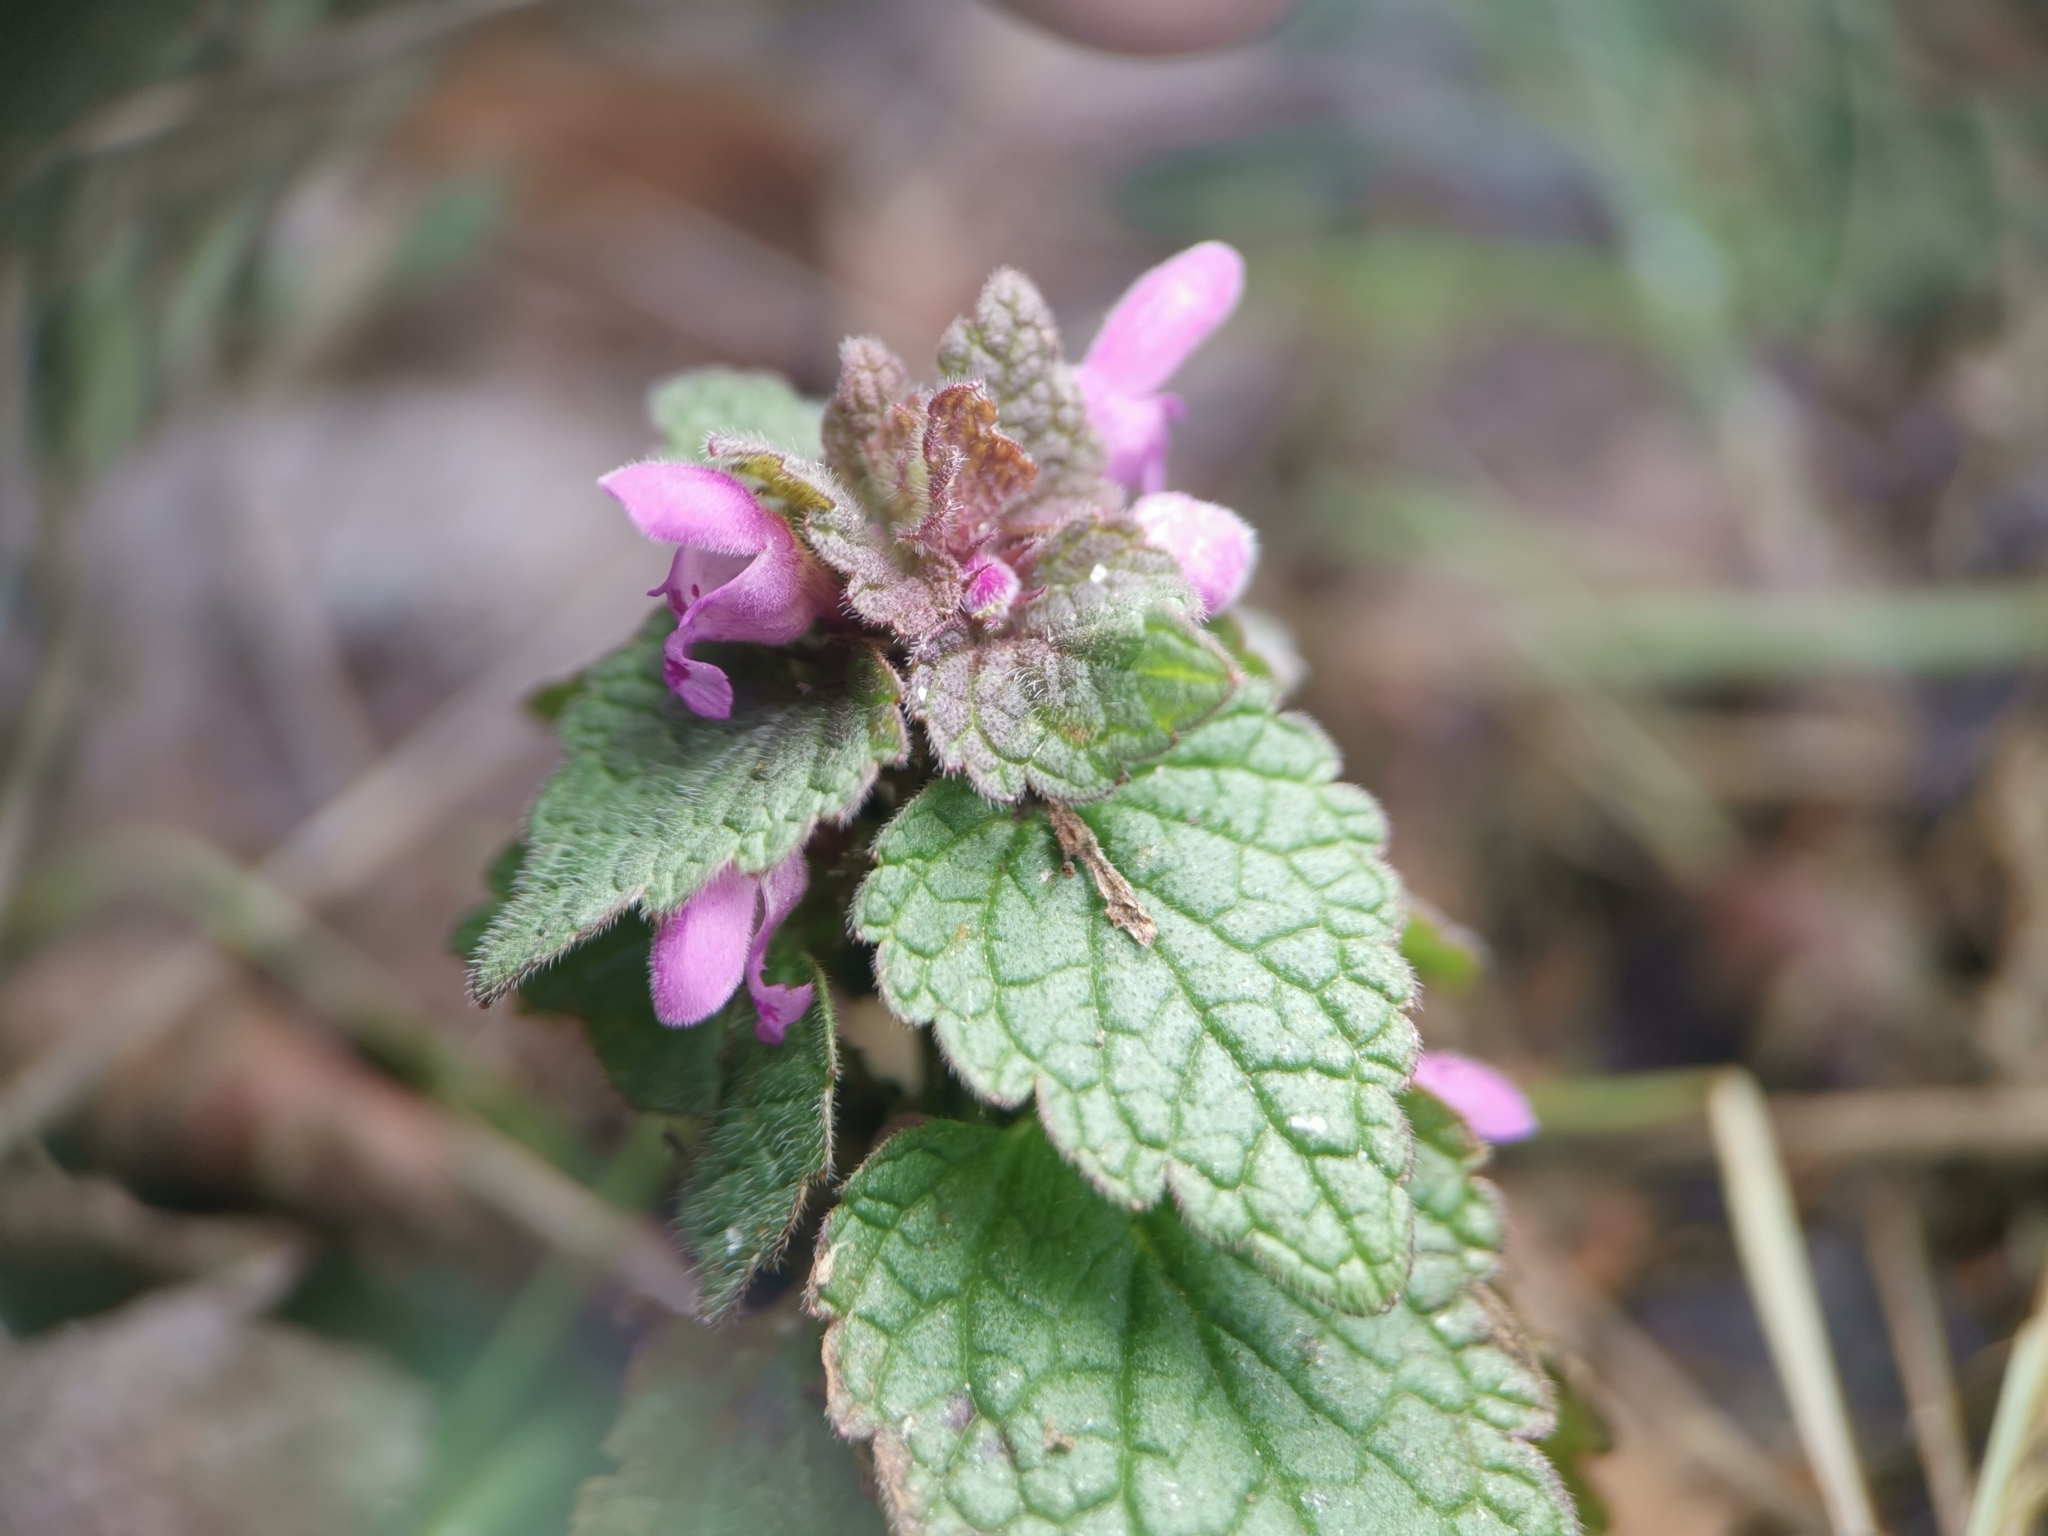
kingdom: Plantae
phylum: Tracheophyta
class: Magnoliopsida
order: Lamiales
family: Lamiaceae
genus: Lamium
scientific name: Lamium purpureum
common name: Red dead-nettle
